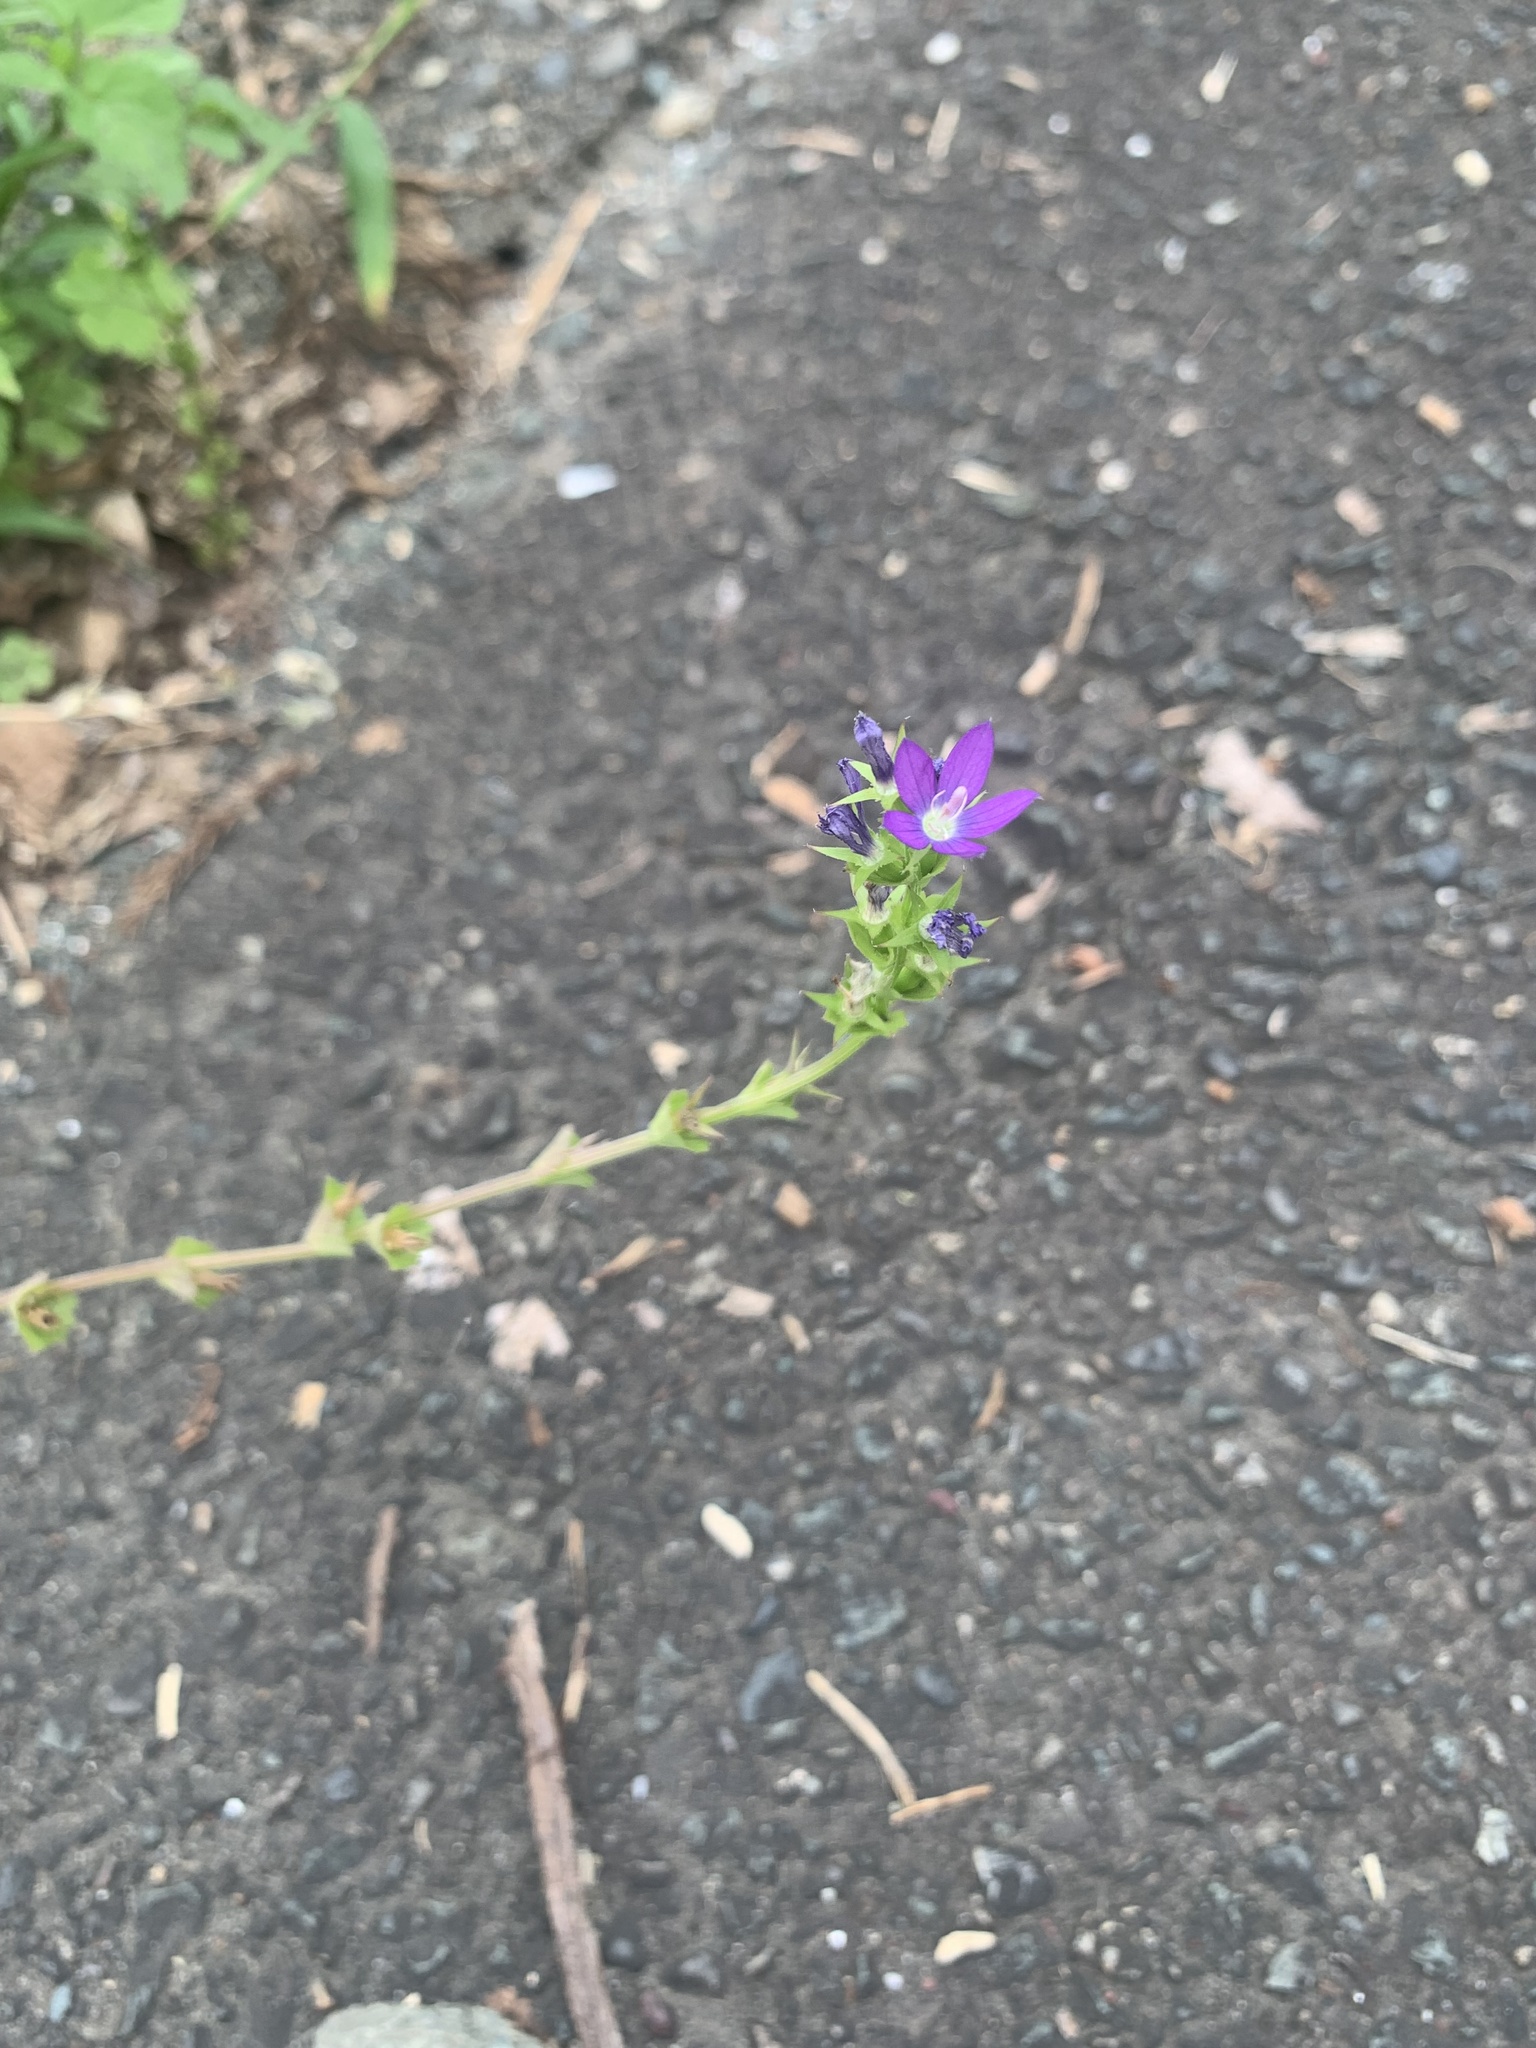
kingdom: Plantae
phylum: Tracheophyta
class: Magnoliopsida
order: Asterales
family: Campanulaceae
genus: Triodanis
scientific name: Triodanis perfoliata
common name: Clasping venus' looking-glass
